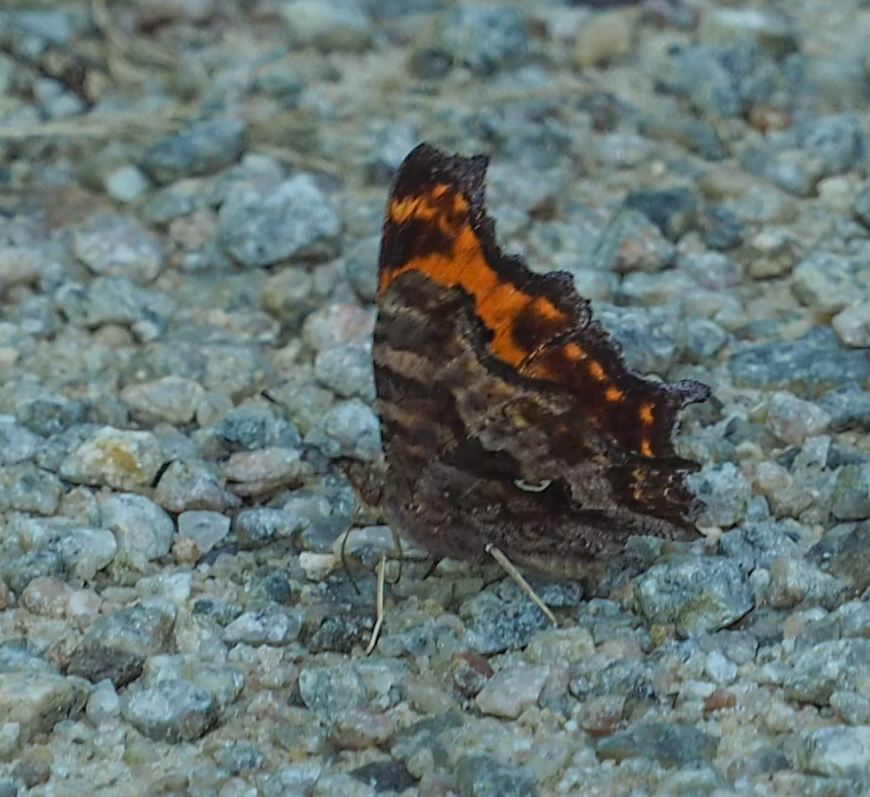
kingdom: Animalia
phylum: Arthropoda
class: Insecta
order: Lepidoptera
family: Nymphalidae
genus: Polygonia
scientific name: Polygonia comma
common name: Eastern comma
